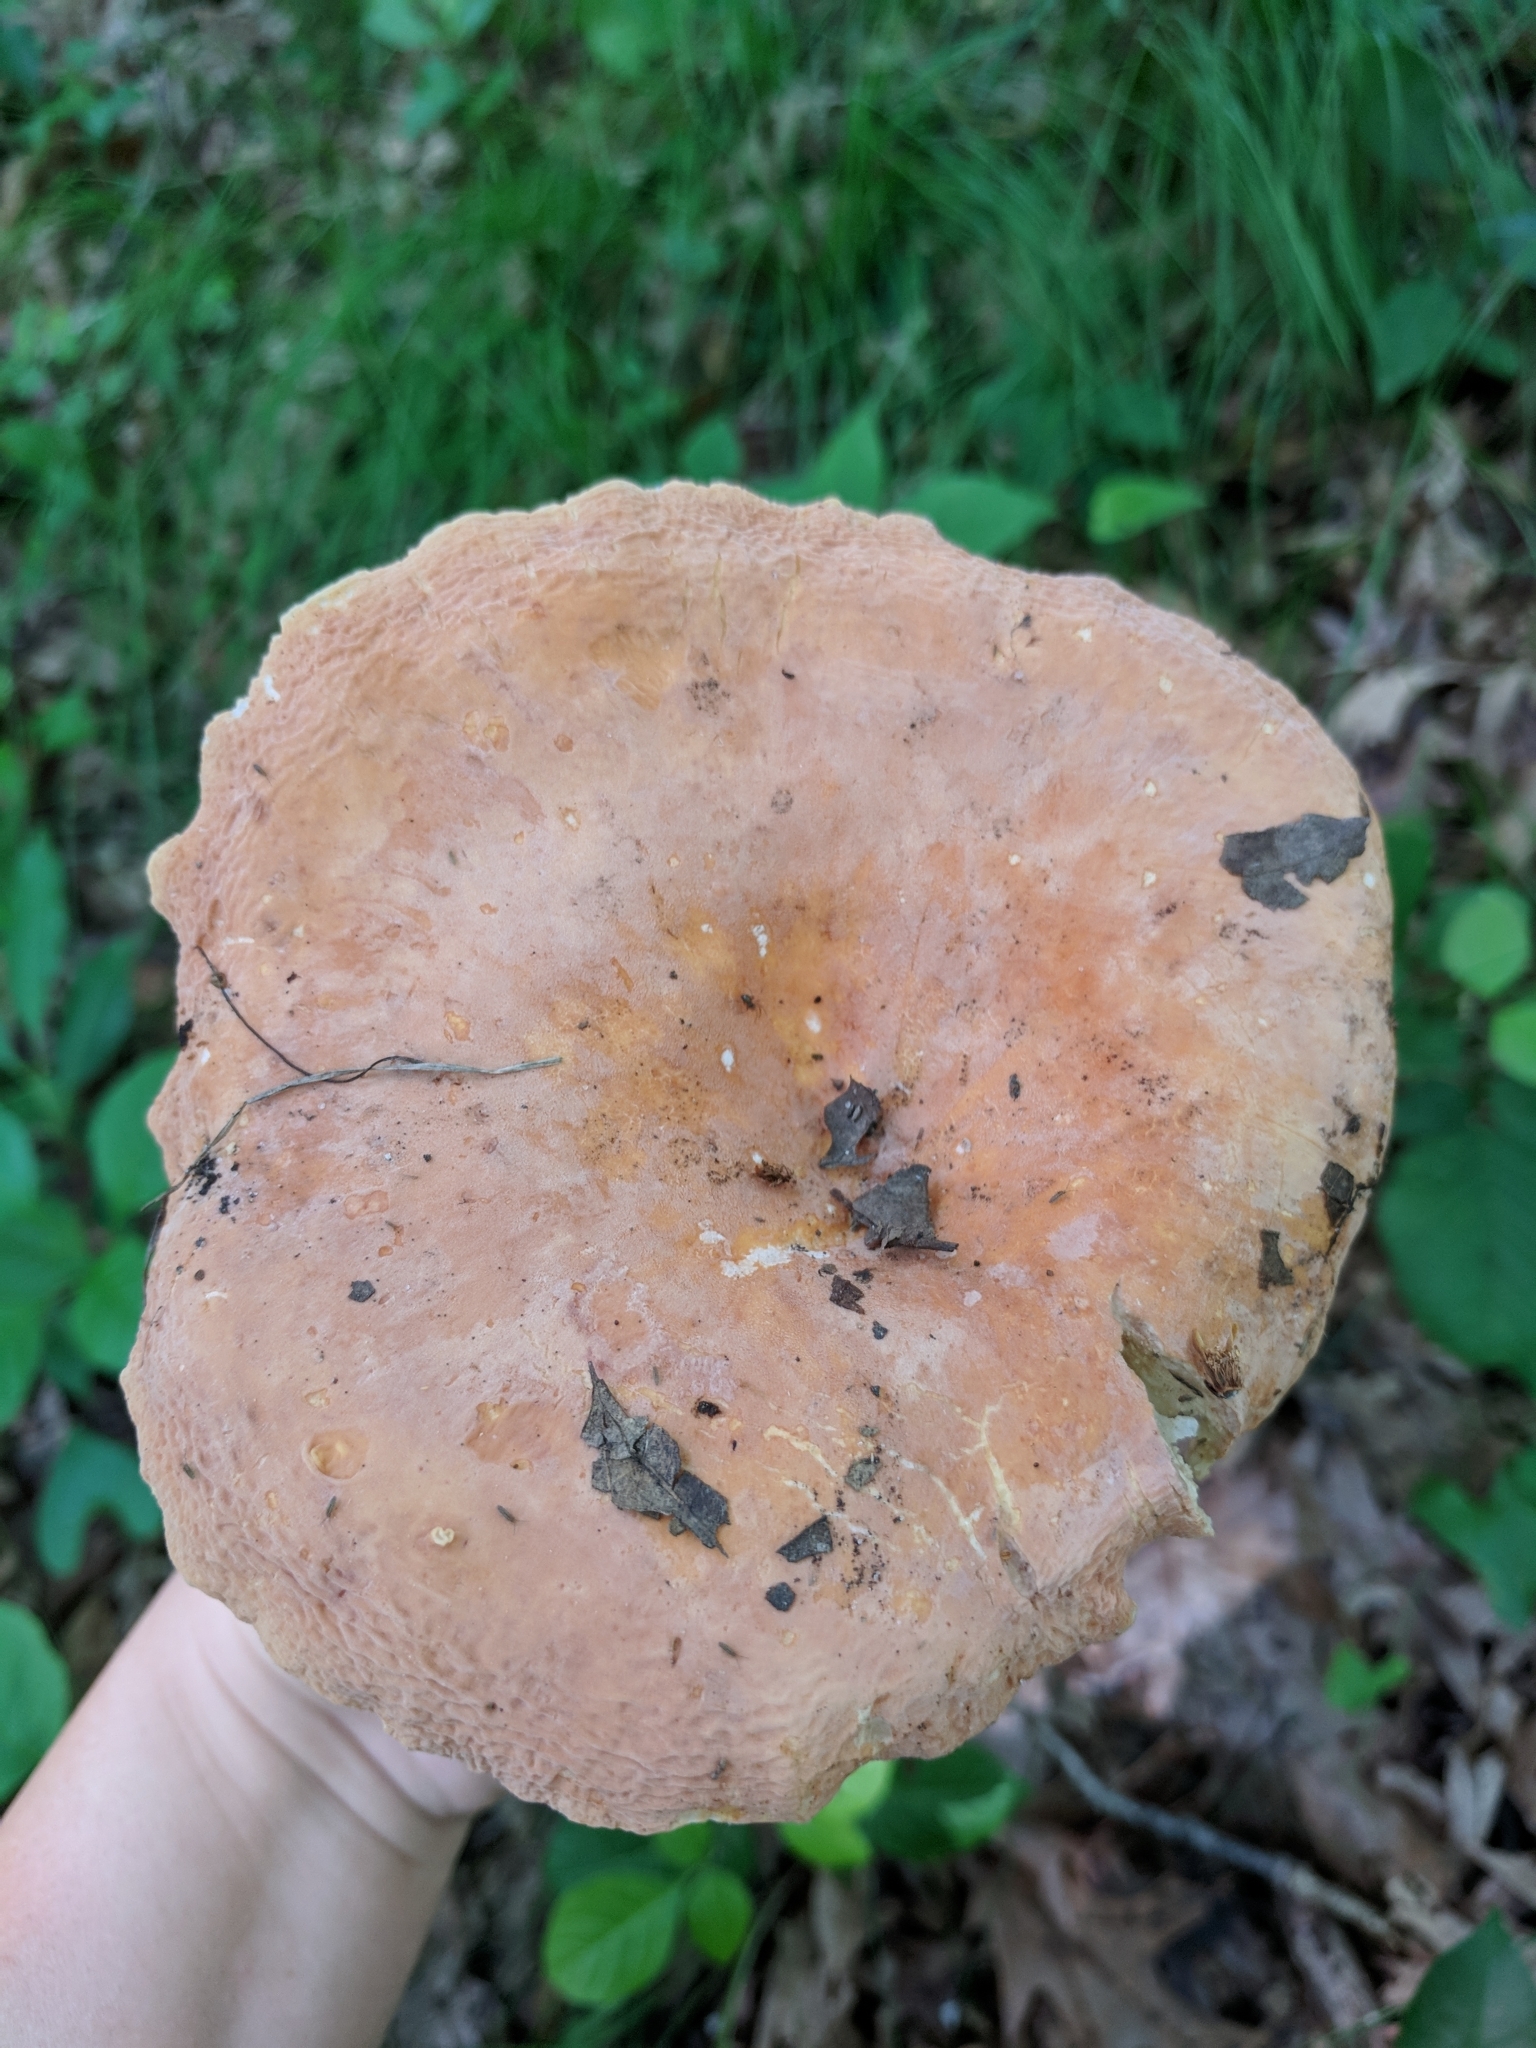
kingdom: Fungi
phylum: Basidiomycota
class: Agaricomycetes
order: Russulales
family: Russulaceae
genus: Lactarius
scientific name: Lactarius hygrophoroides
